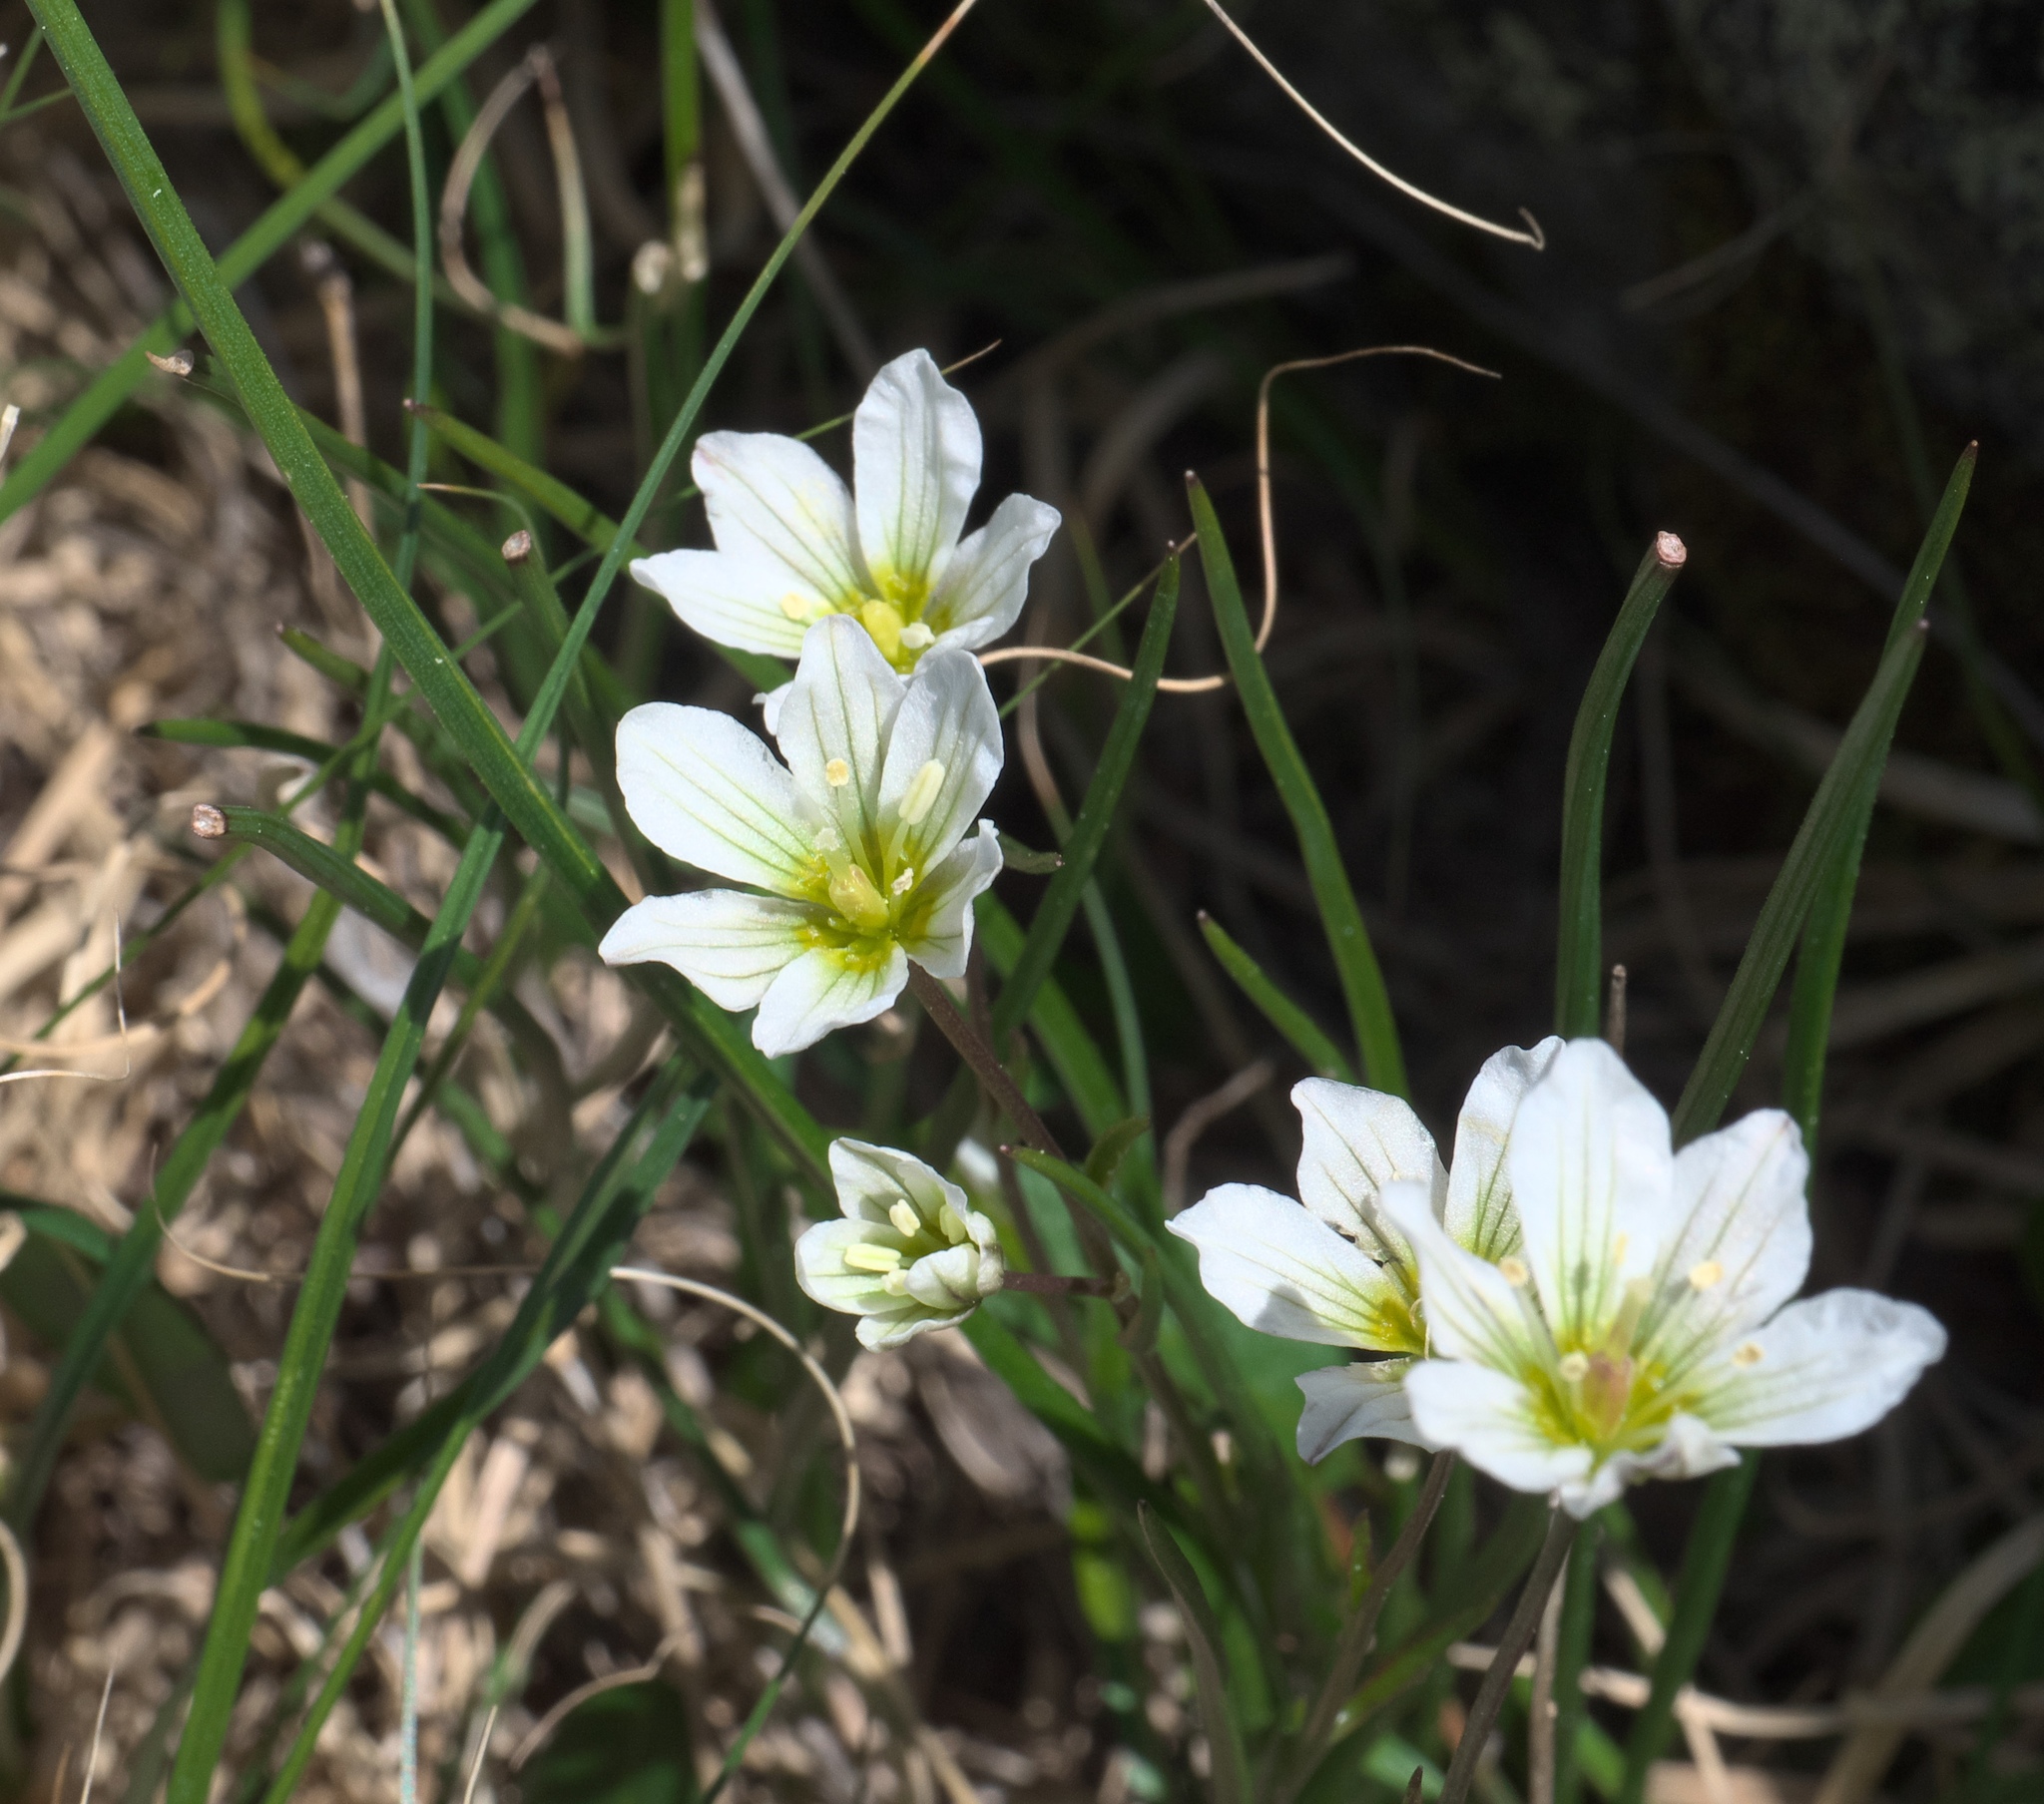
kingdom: Plantae
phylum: Tracheophyta
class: Liliopsida
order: Asparagales
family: Amaryllidaceae
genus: Nothoscordum
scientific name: Nothoscordum bivalve
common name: Crow-poison
